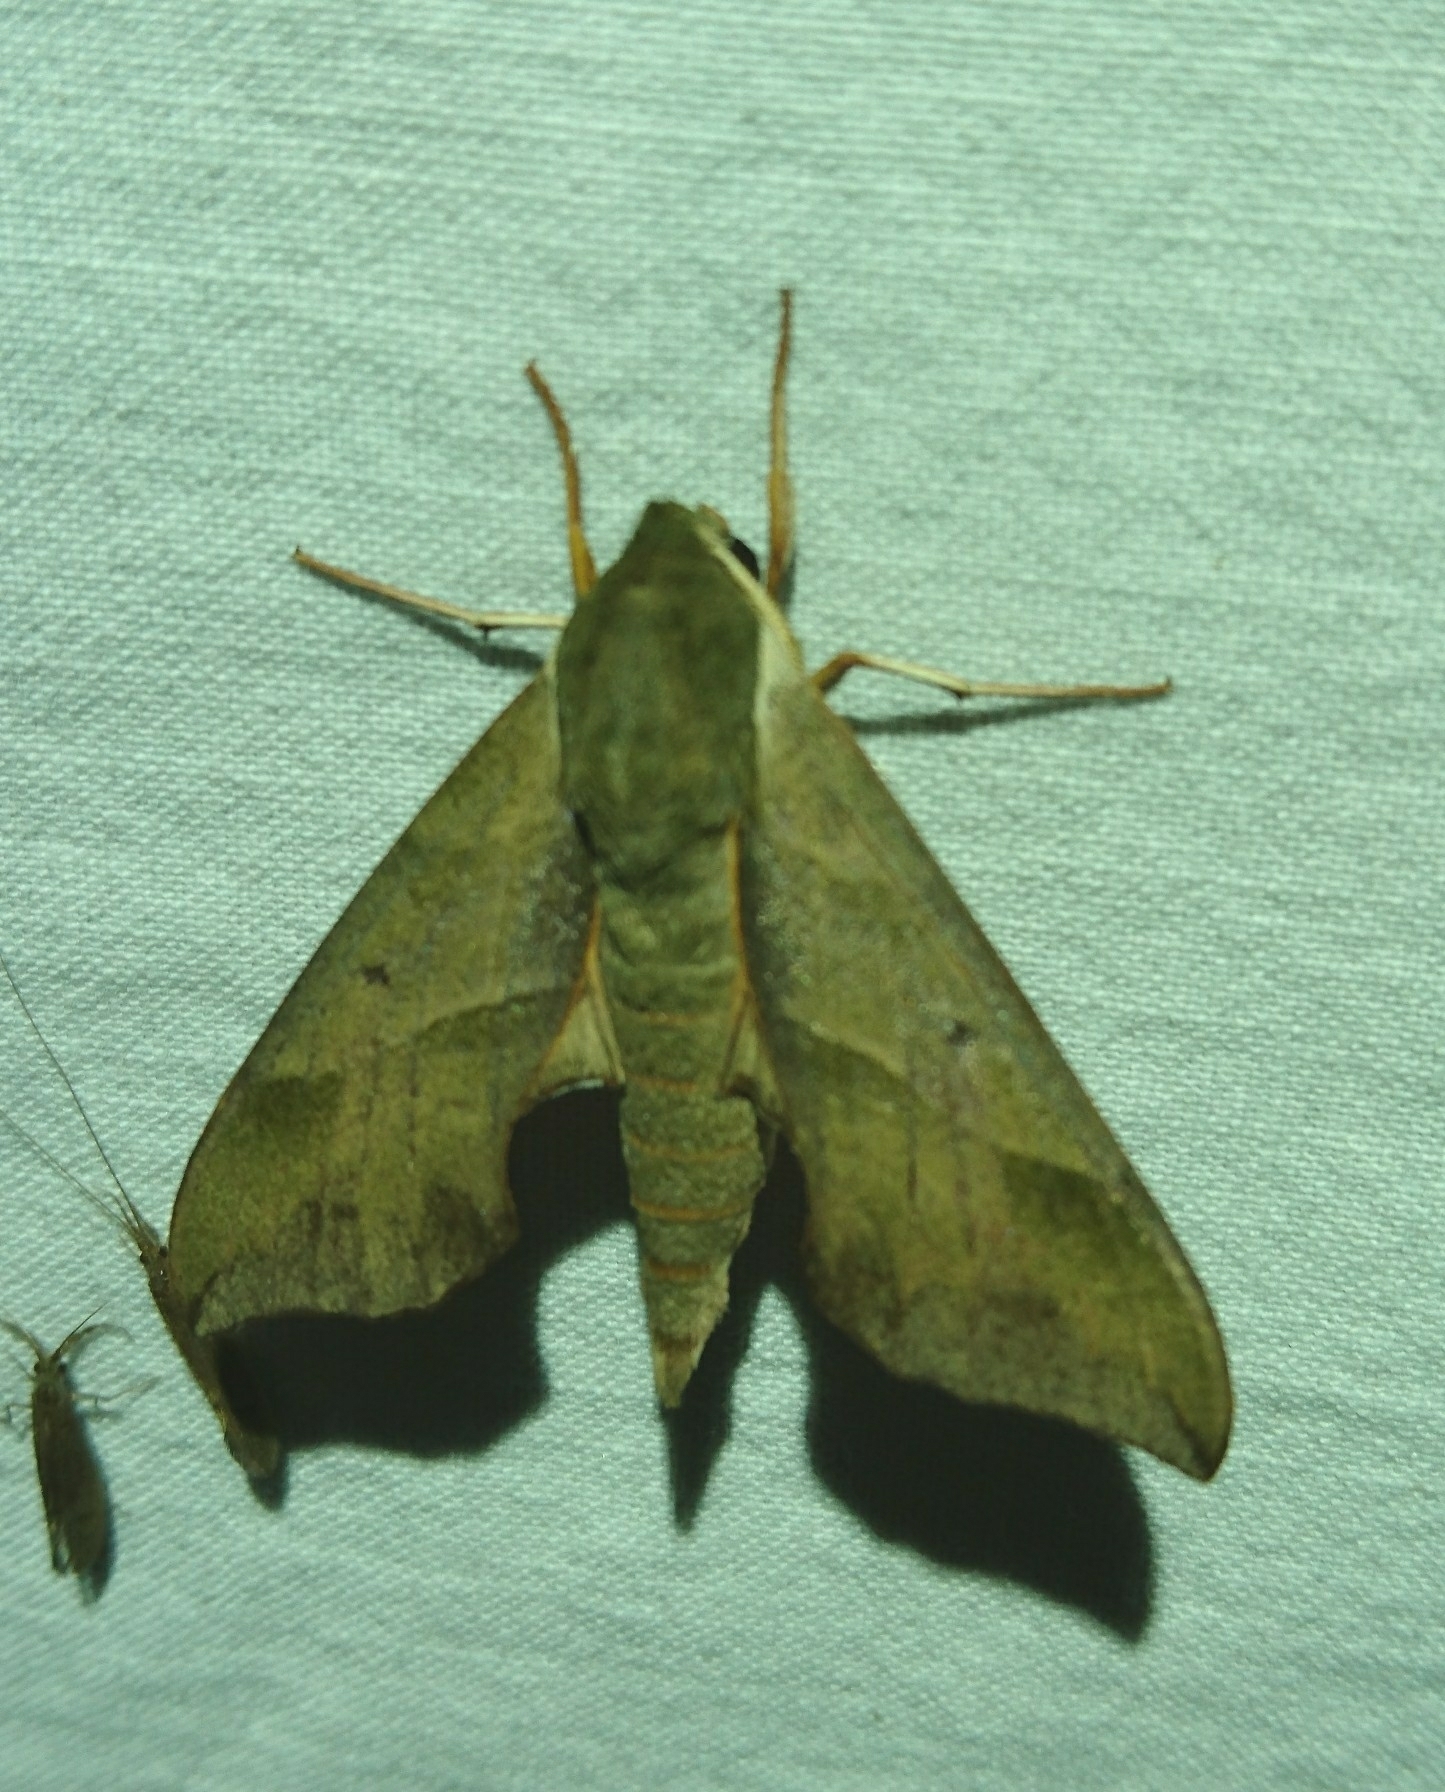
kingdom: Animalia
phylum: Arthropoda
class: Insecta
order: Lepidoptera
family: Sphingidae
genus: Darapsa
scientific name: Darapsa myron
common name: Hog sphinx
